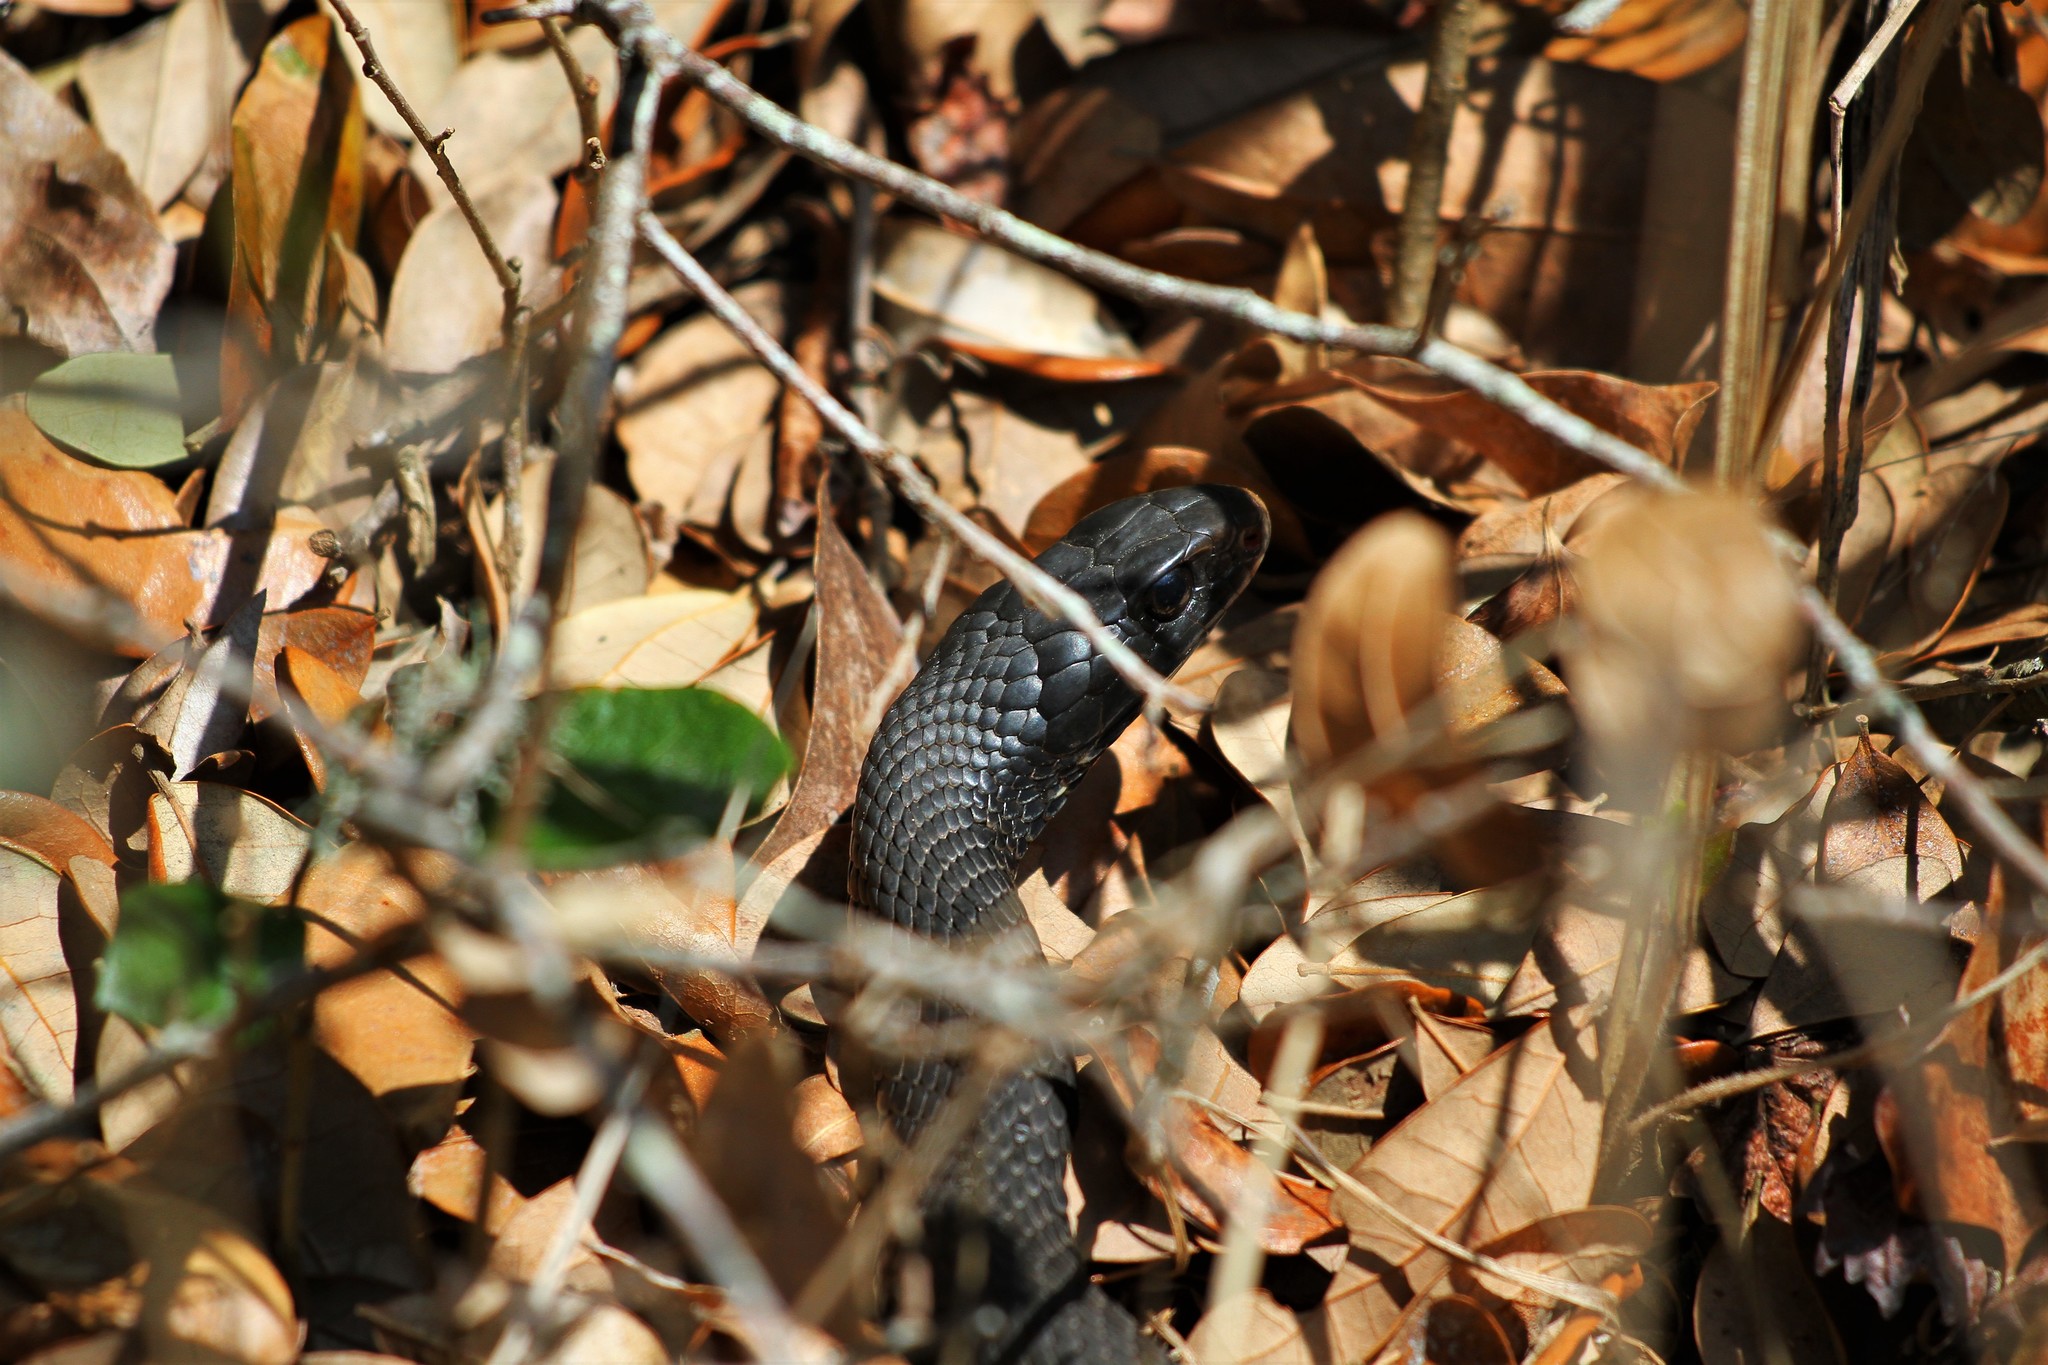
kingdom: Animalia
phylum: Chordata
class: Squamata
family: Colubridae
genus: Coluber
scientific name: Coluber constrictor
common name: Eastern racer
